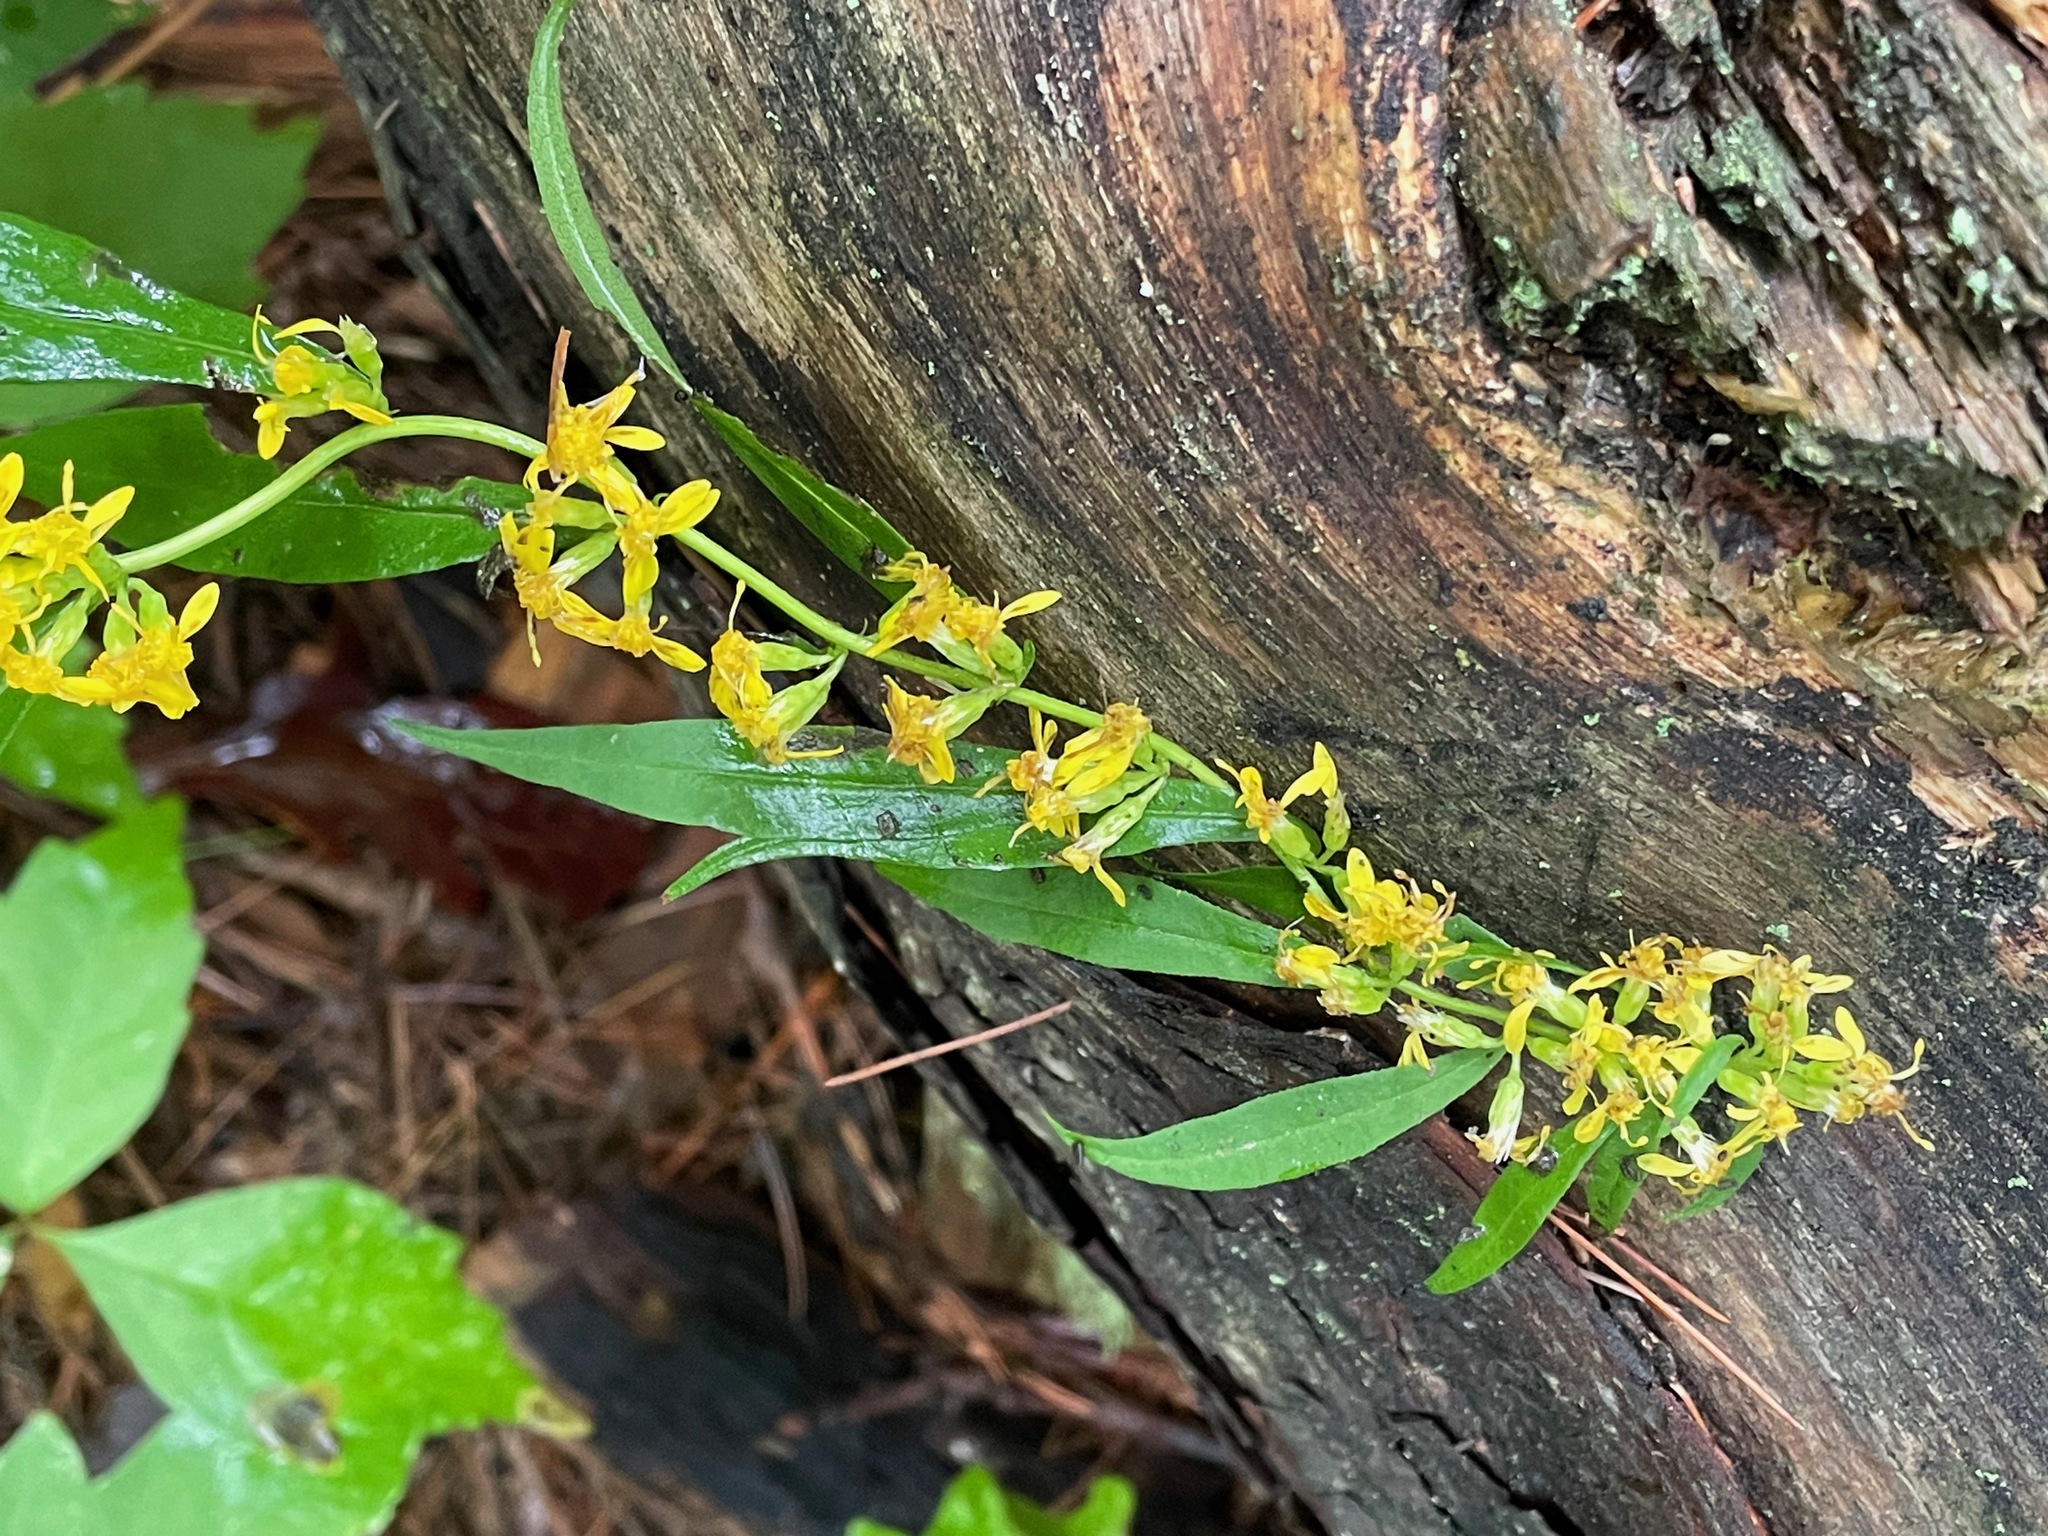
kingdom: Plantae
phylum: Tracheophyta
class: Magnoliopsida
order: Asterales
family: Asteraceae
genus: Solidago
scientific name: Solidago caesia
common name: Woodland goldenrod
